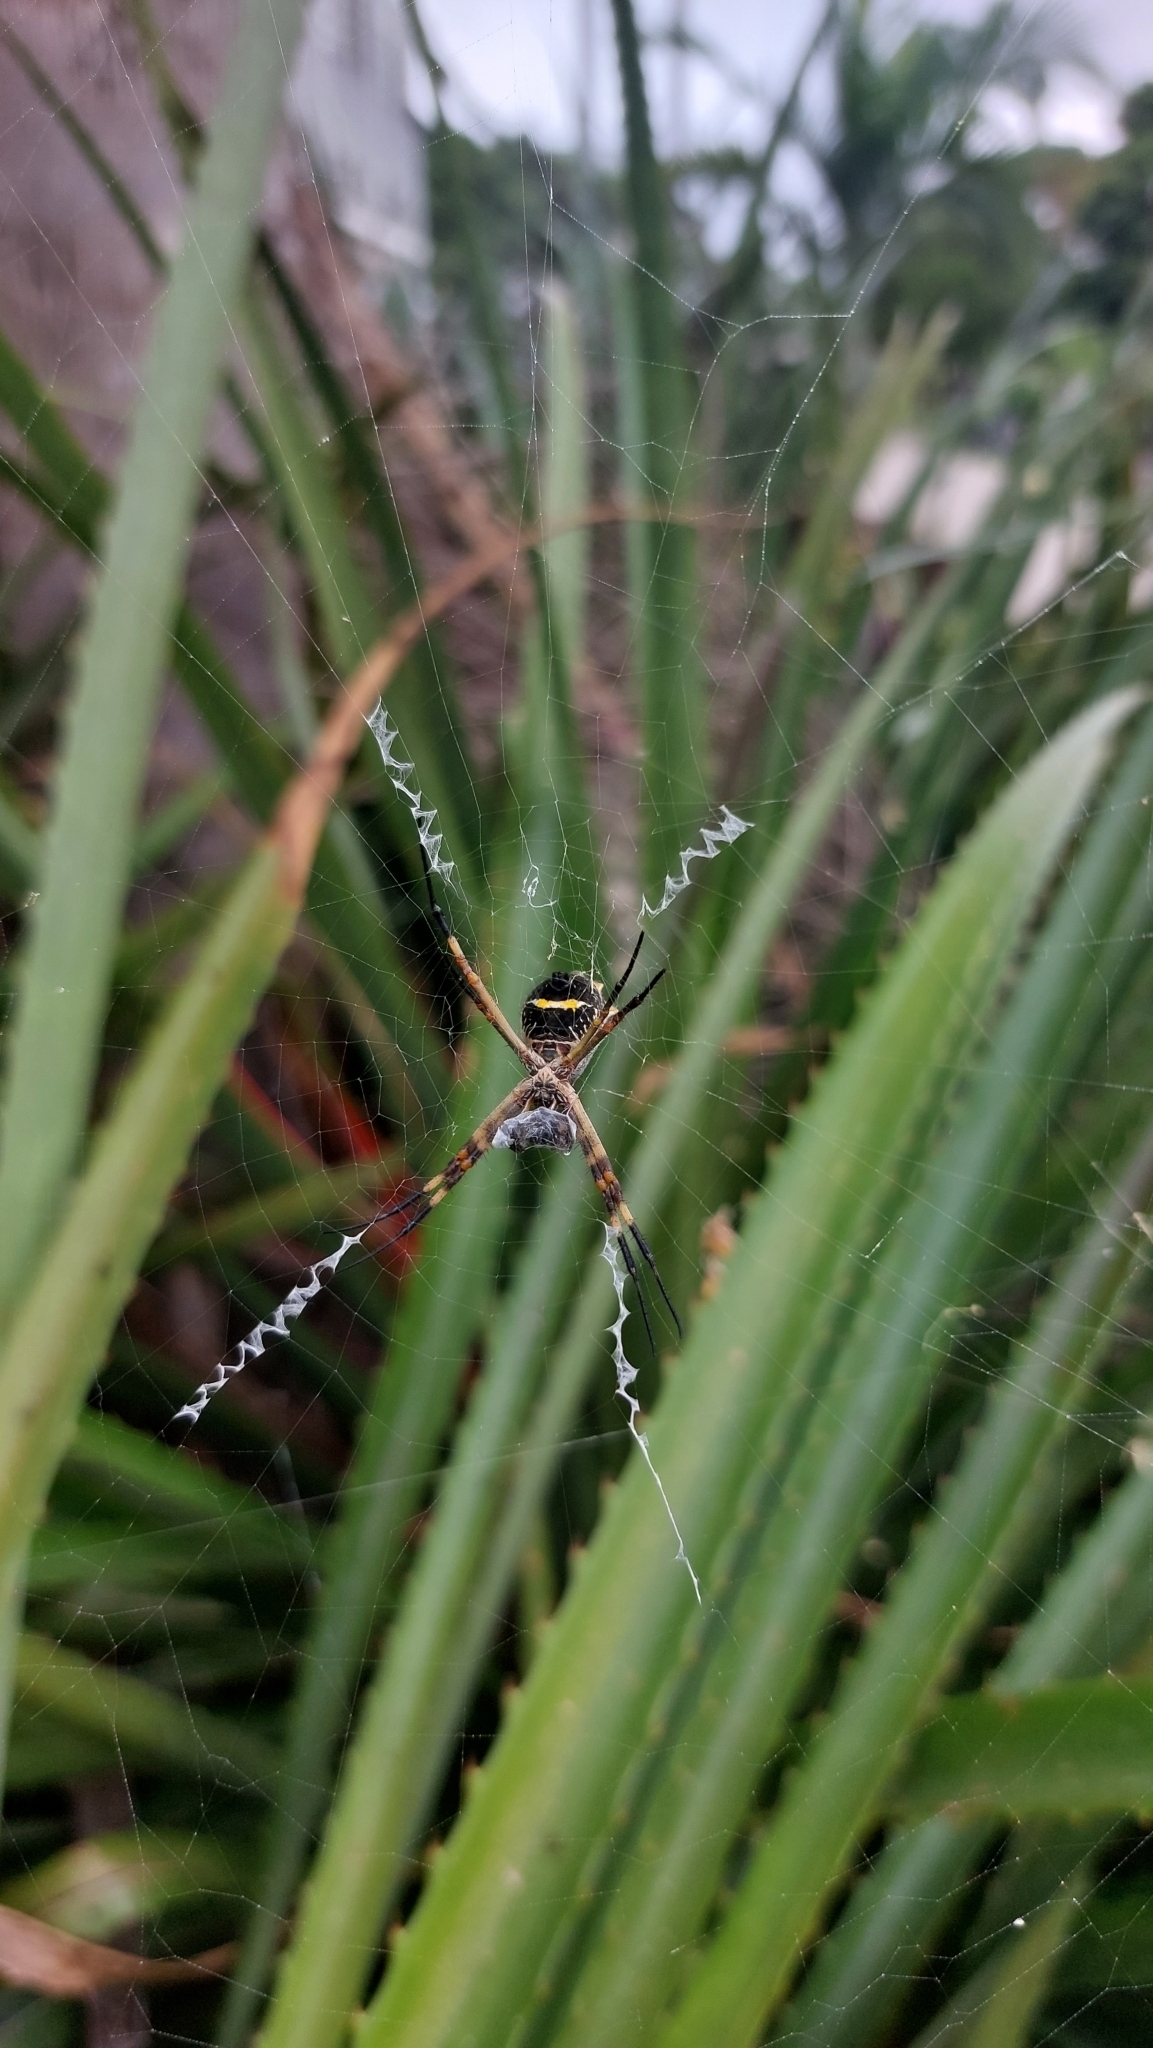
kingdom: Animalia
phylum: Arthropoda
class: Arachnida
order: Araneae
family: Araneidae
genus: Argiope
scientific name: Argiope argentata
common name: Orb weavers
